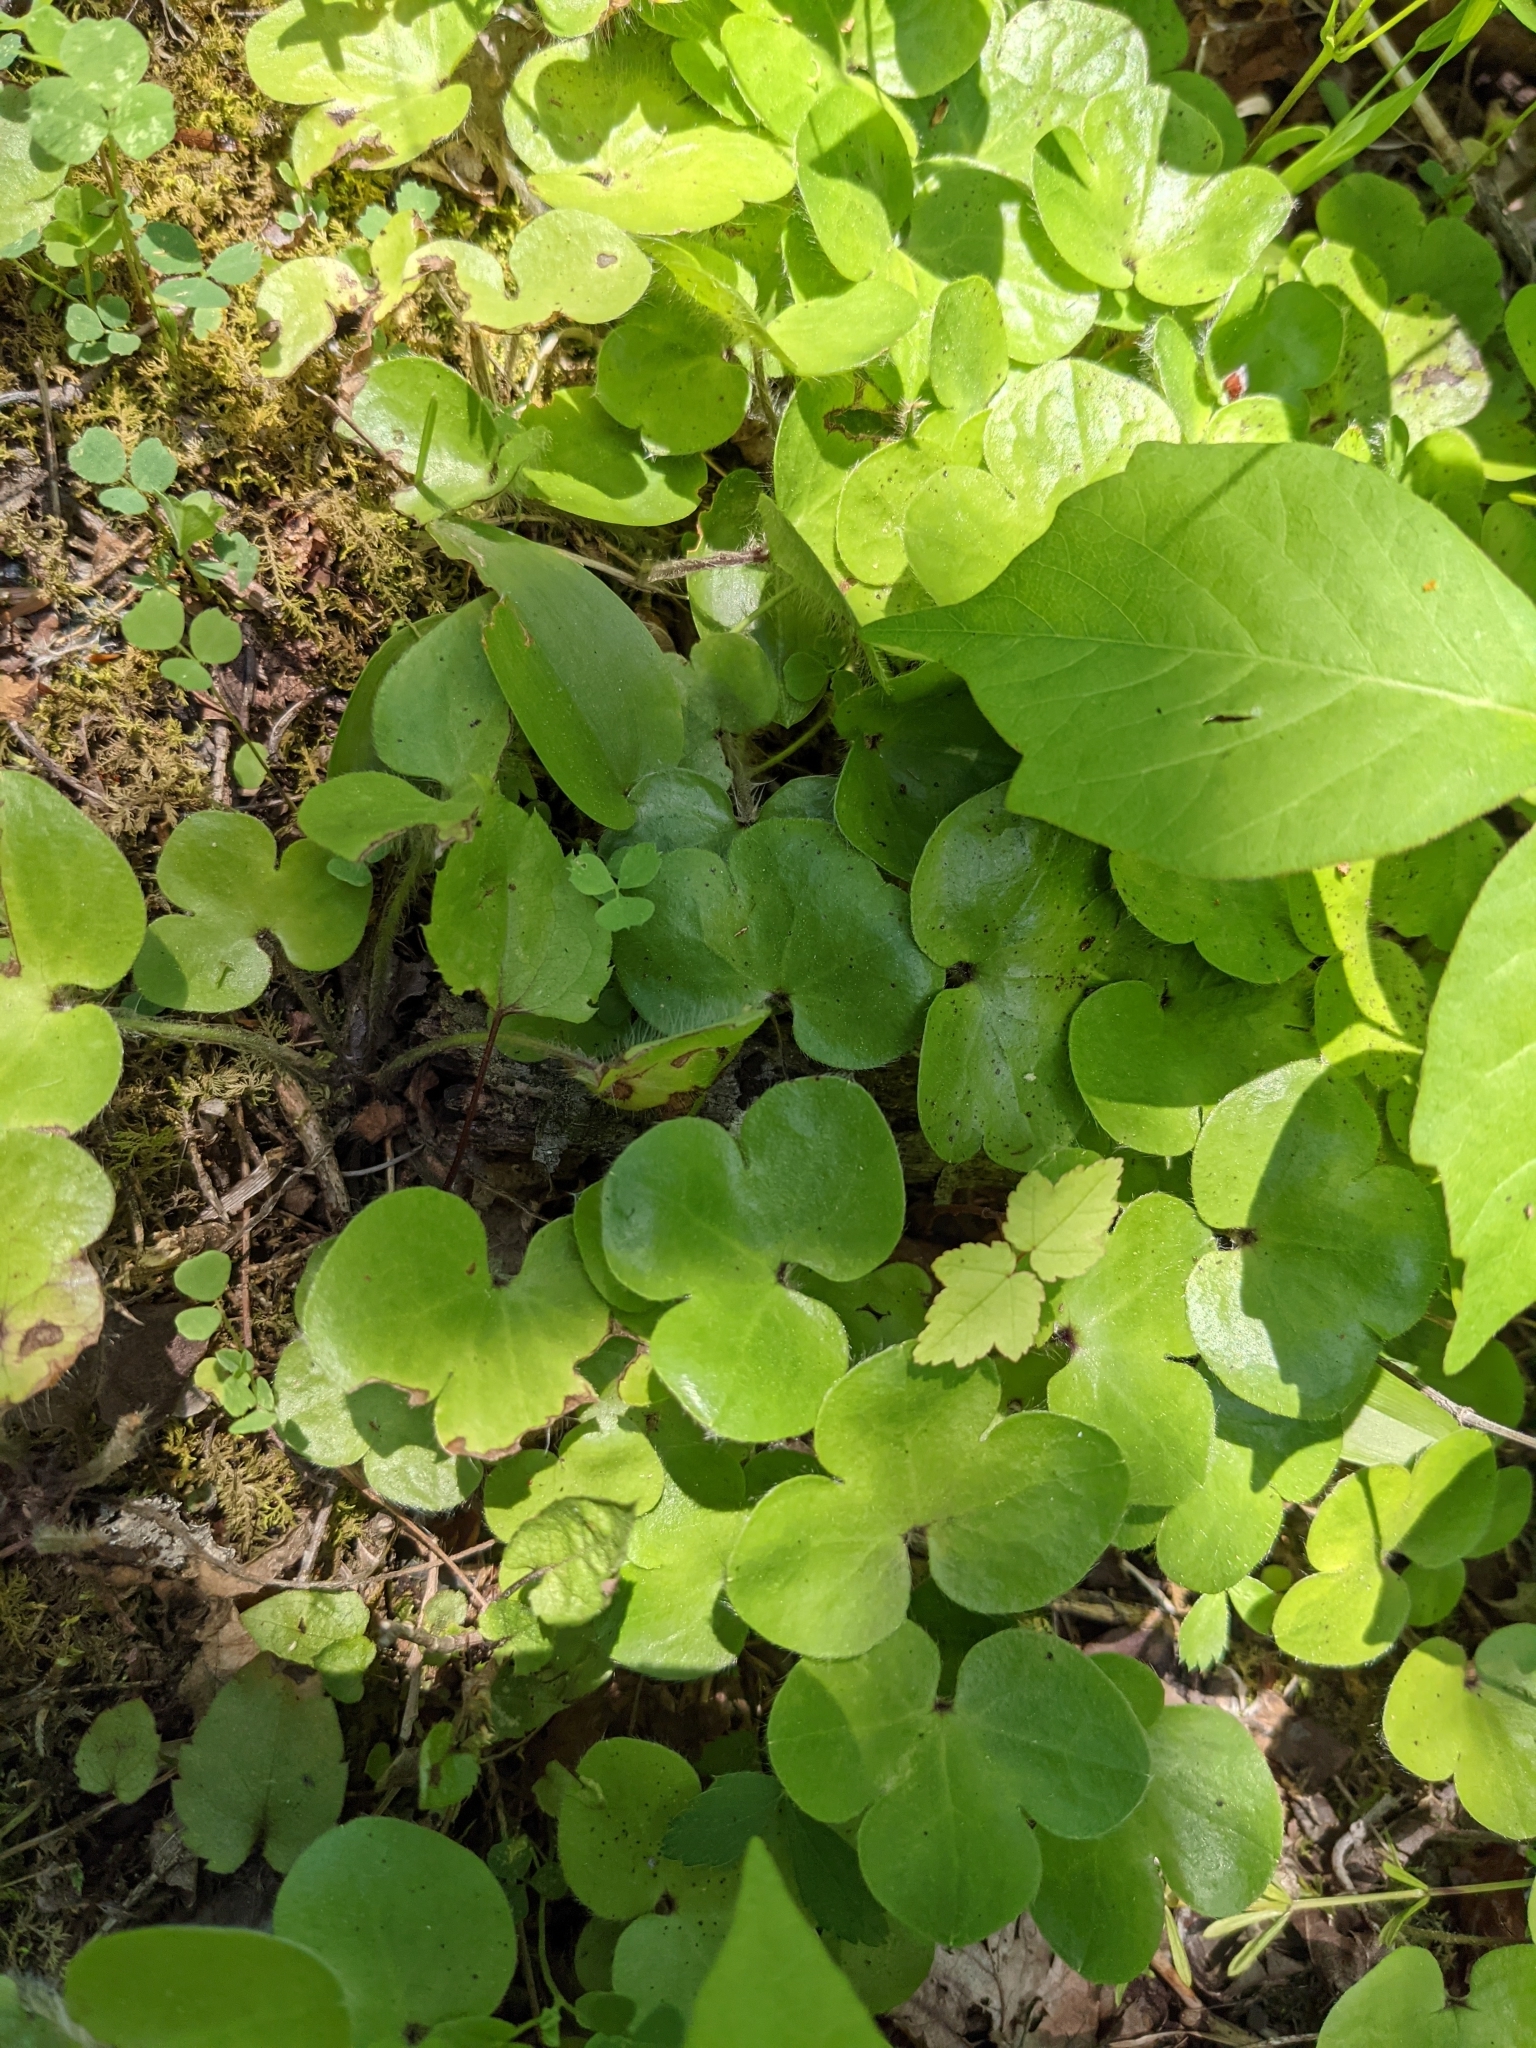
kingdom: Plantae
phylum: Tracheophyta
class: Magnoliopsida
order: Ranunculales
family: Ranunculaceae
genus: Hepatica
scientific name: Hepatica americana
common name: American hepatica
